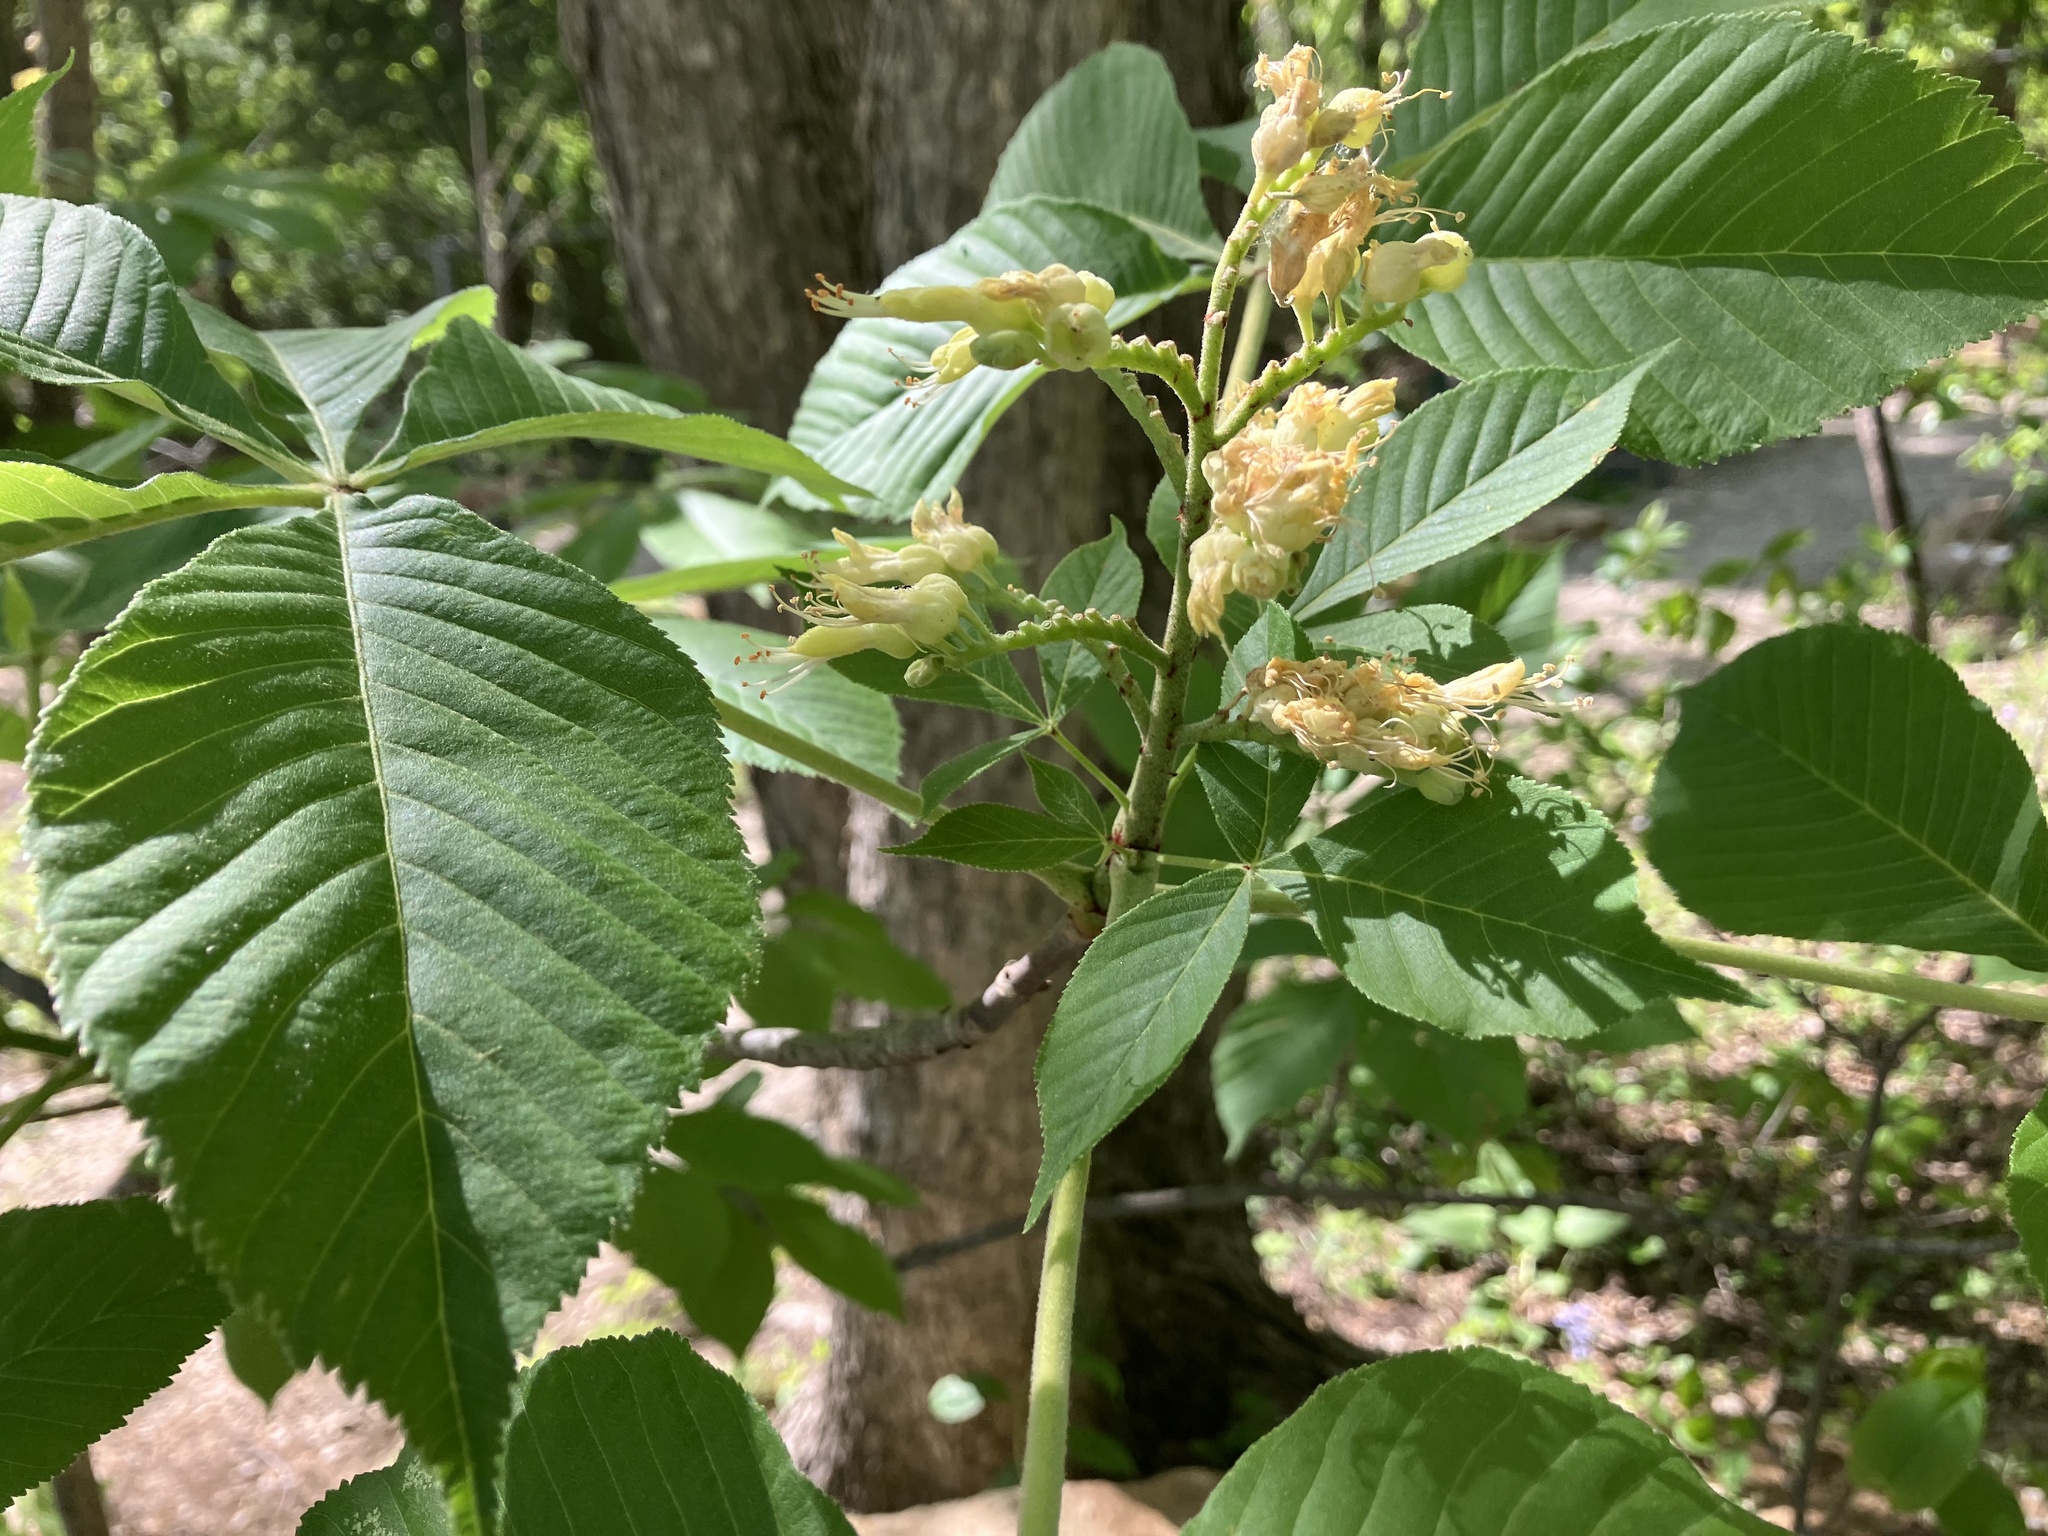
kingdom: Plantae
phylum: Tracheophyta
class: Magnoliopsida
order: Sapindales
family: Sapindaceae
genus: Aesculus
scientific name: Aesculus glabra
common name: Ohio buckeye
